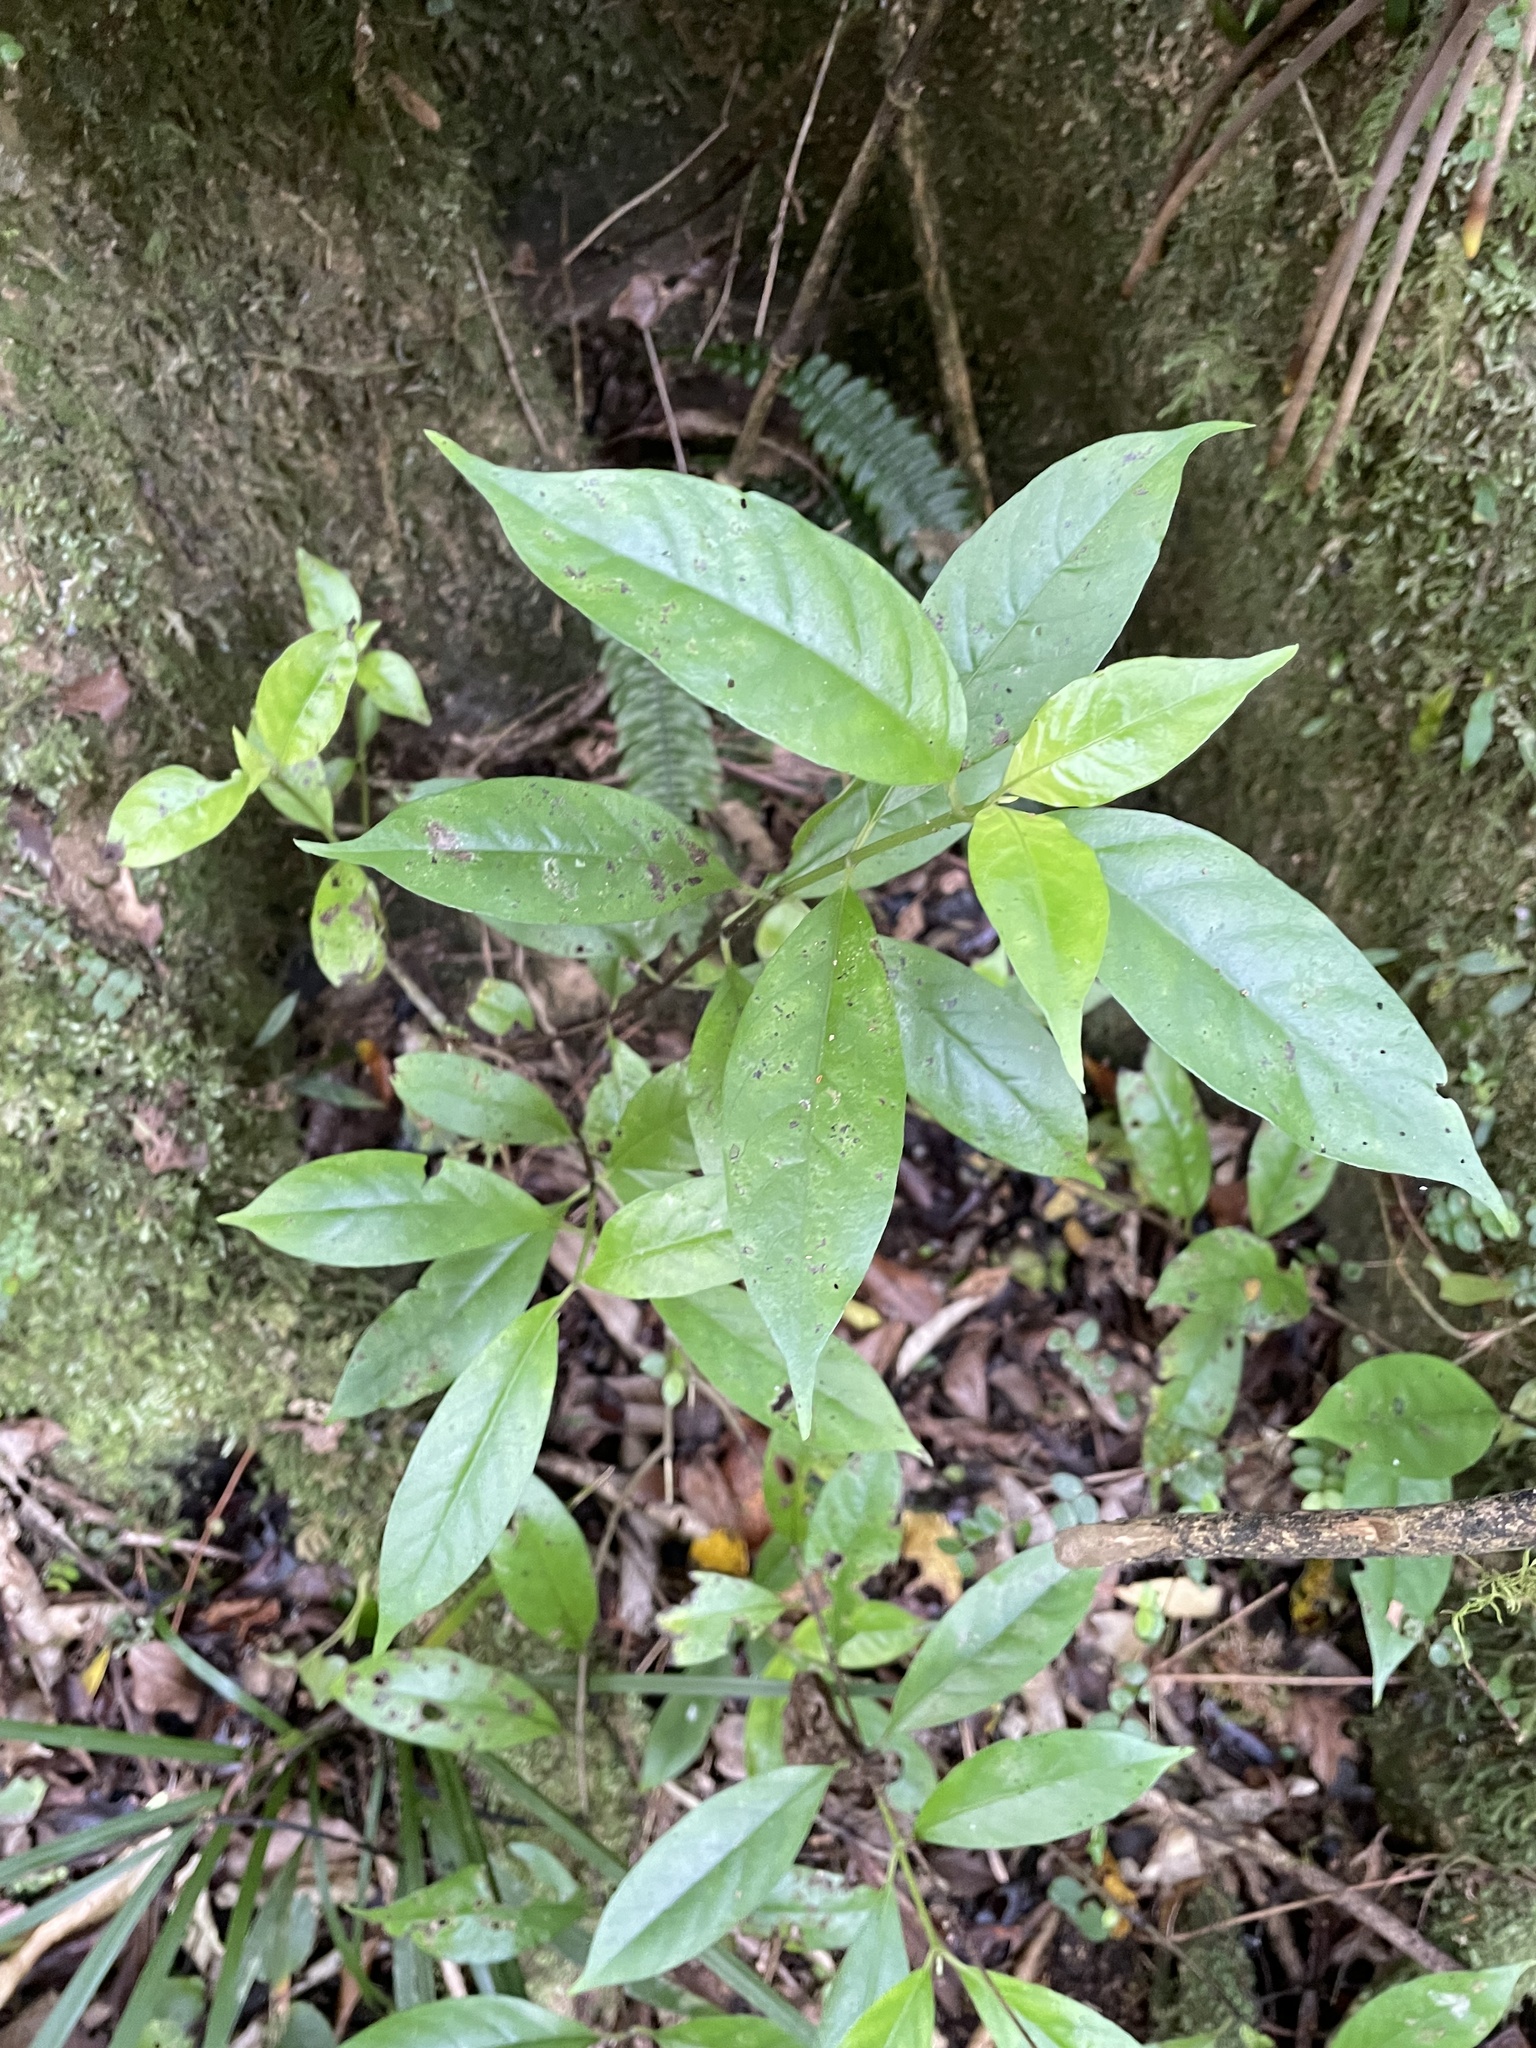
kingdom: Plantae
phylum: Tracheophyta
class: Magnoliopsida
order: Gentianales
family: Loganiaceae
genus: Geniostoma
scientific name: Geniostoma ligustrifolium
